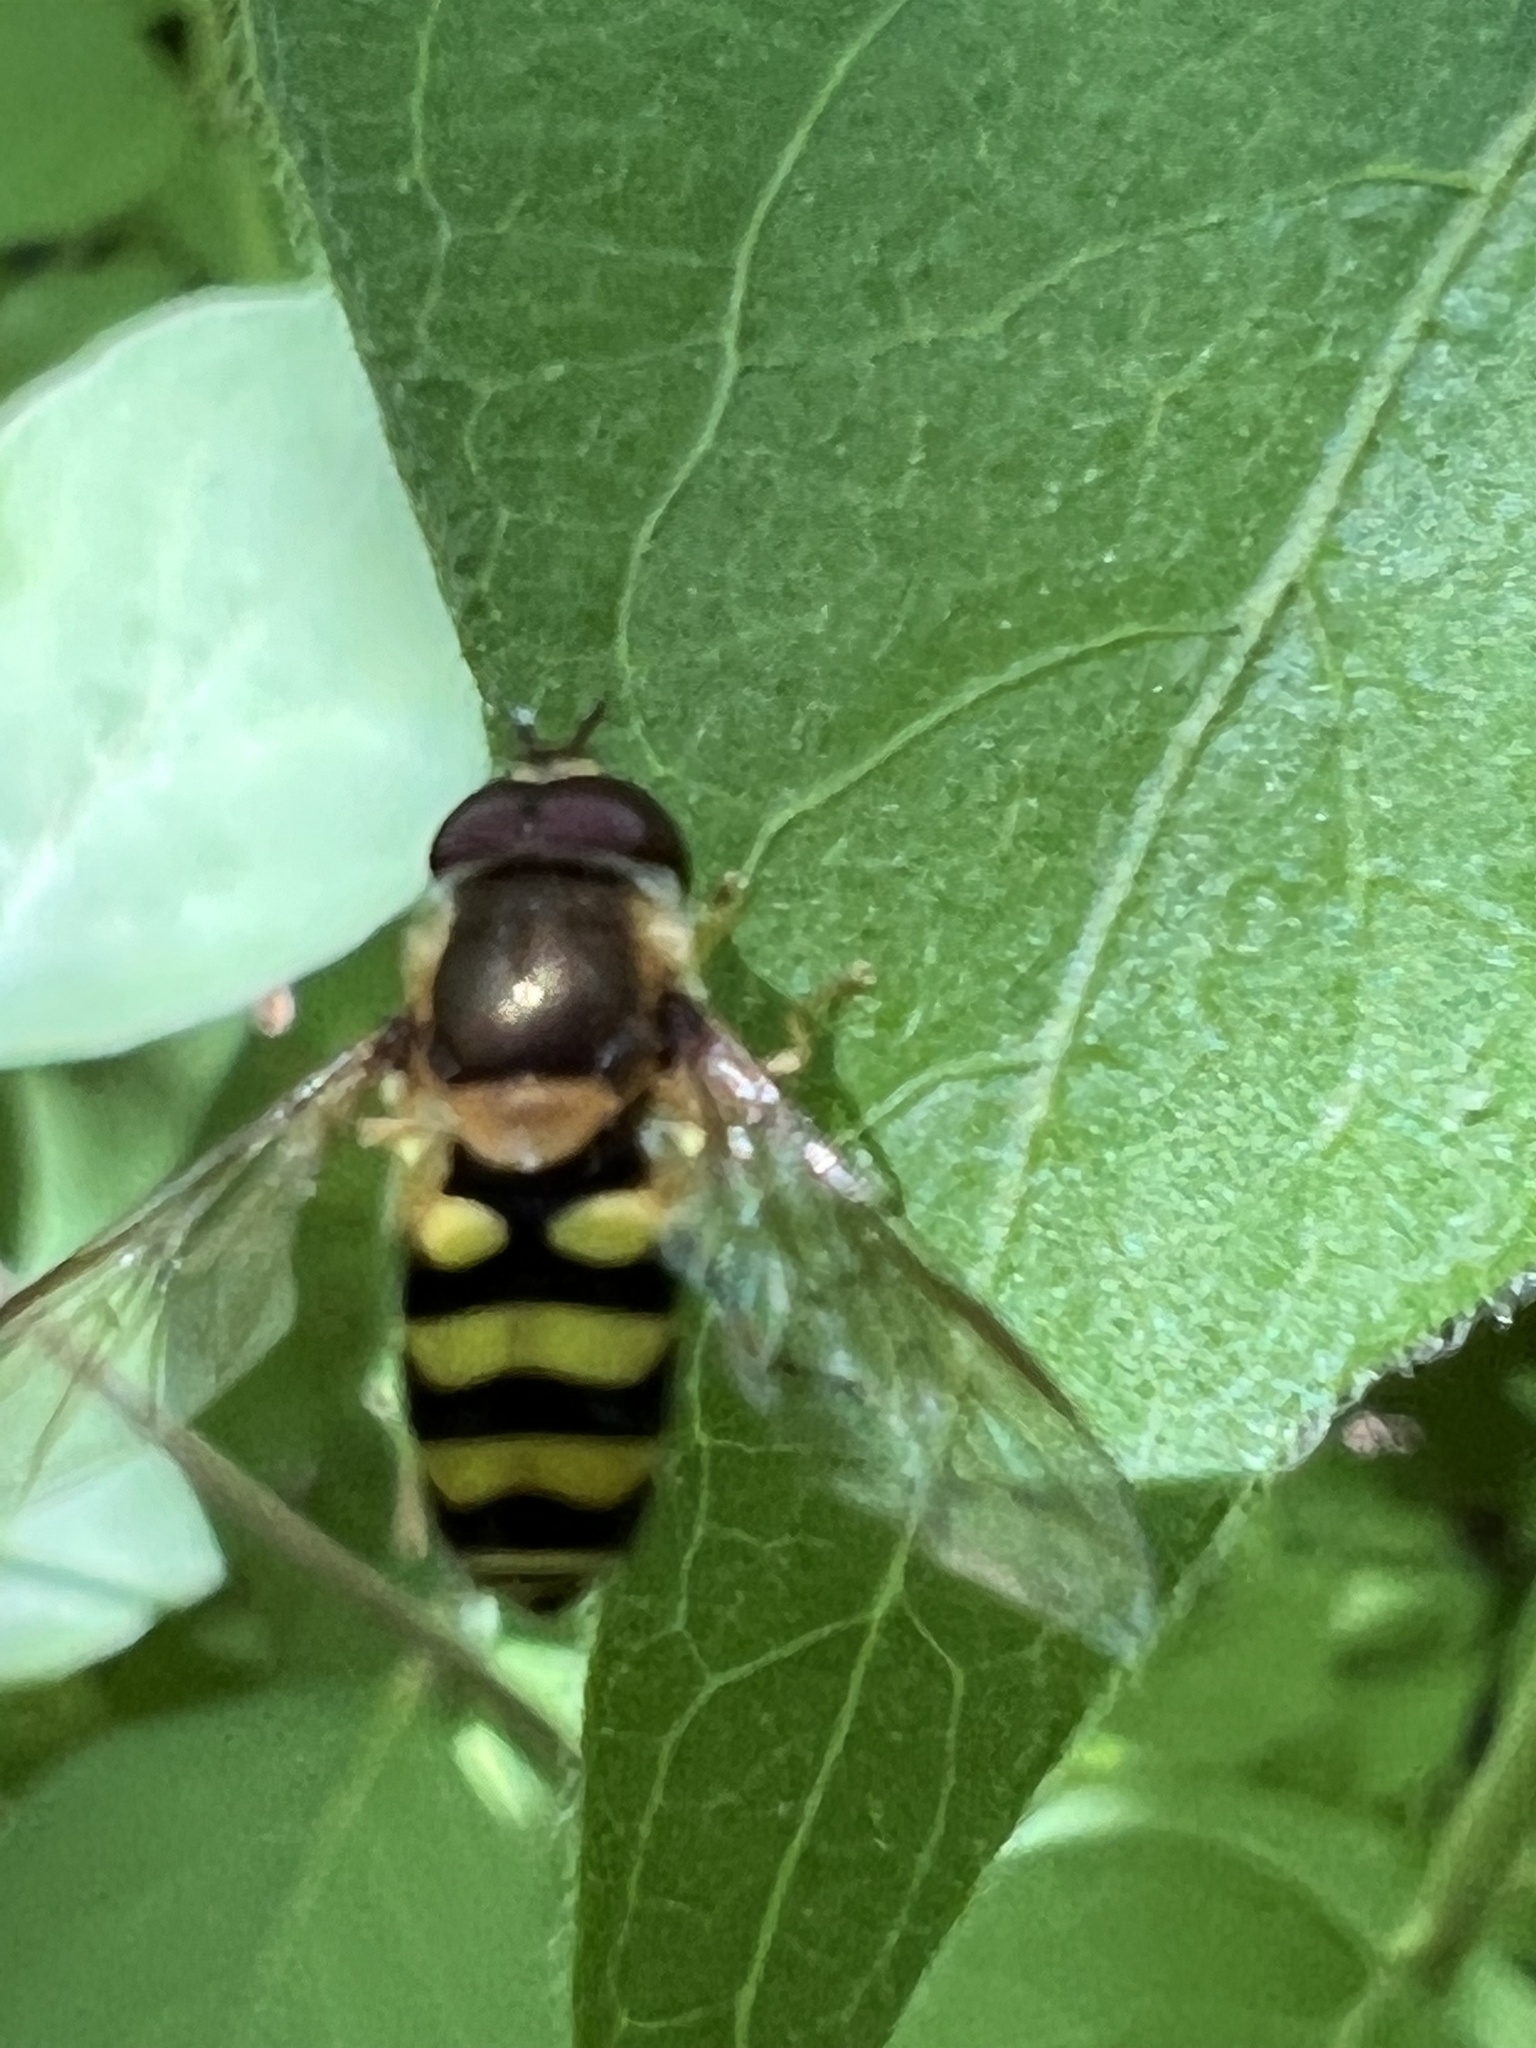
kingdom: Animalia
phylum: Arthropoda
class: Insecta
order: Diptera
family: Syrphidae
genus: Syrphus
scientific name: Syrphus
